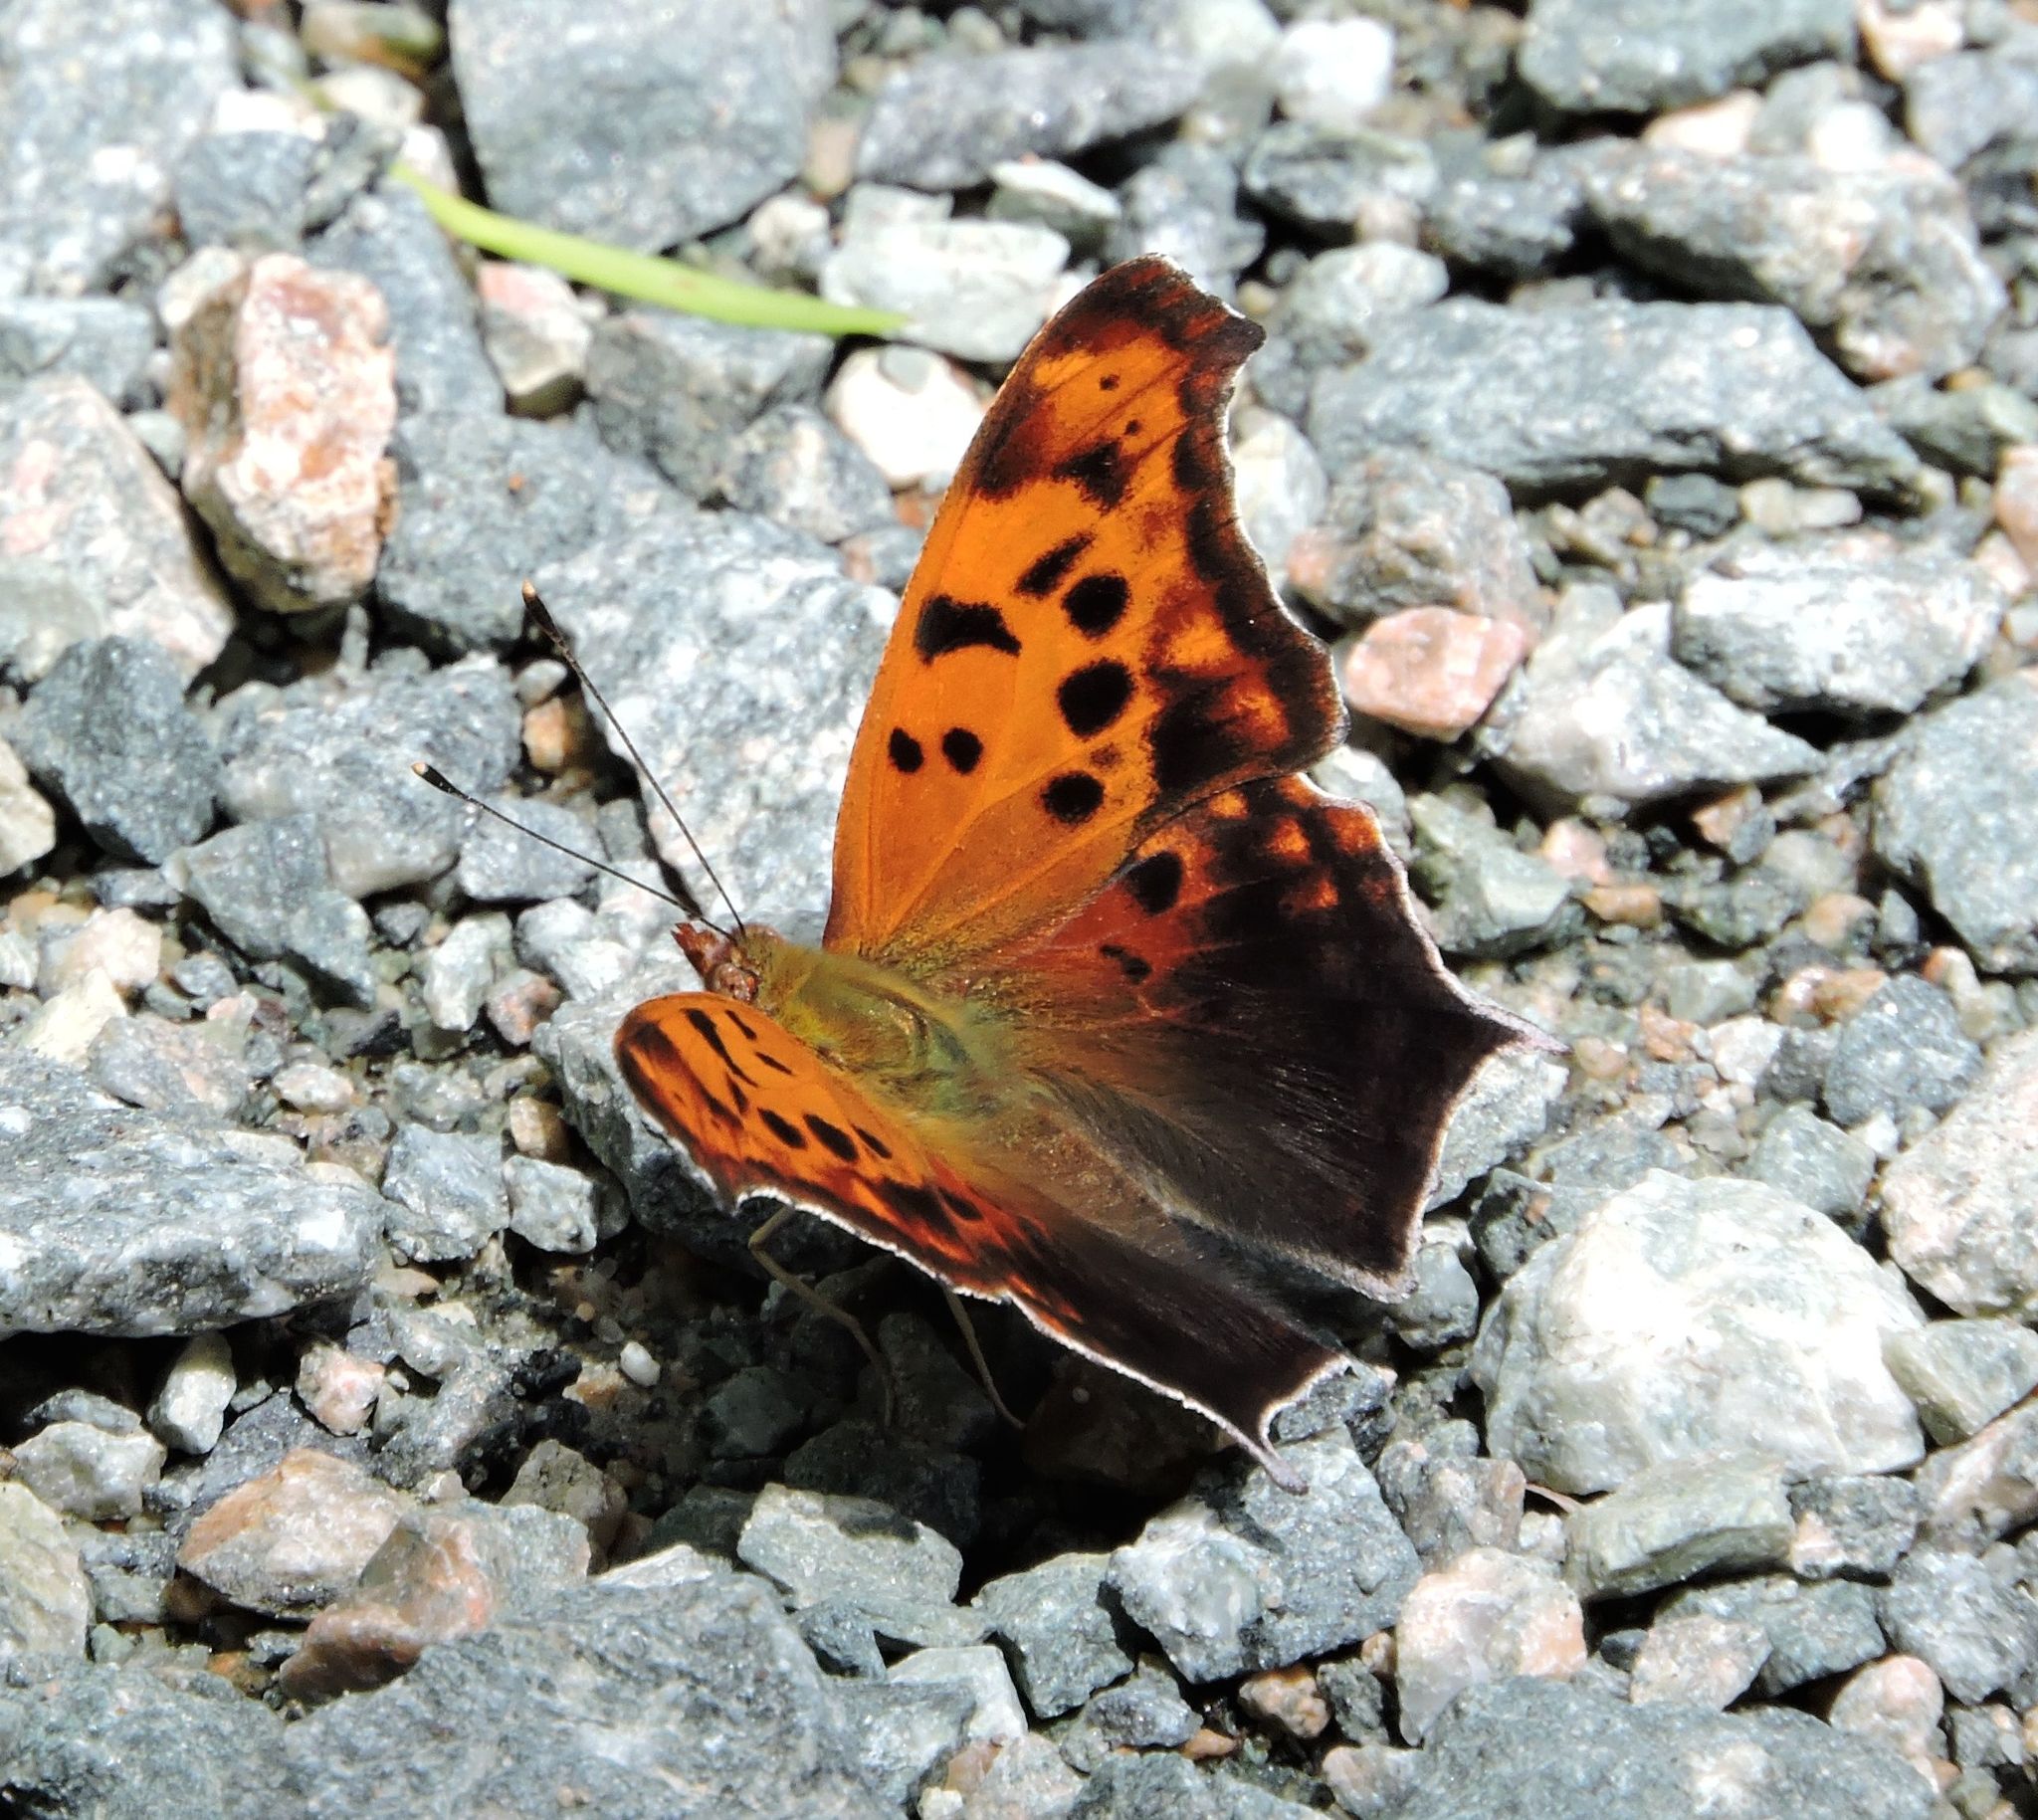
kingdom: Animalia
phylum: Arthropoda
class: Insecta
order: Lepidoptera
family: Nymphalidae
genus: Polygonia
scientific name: Polygonia interrogationis
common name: Question mark
